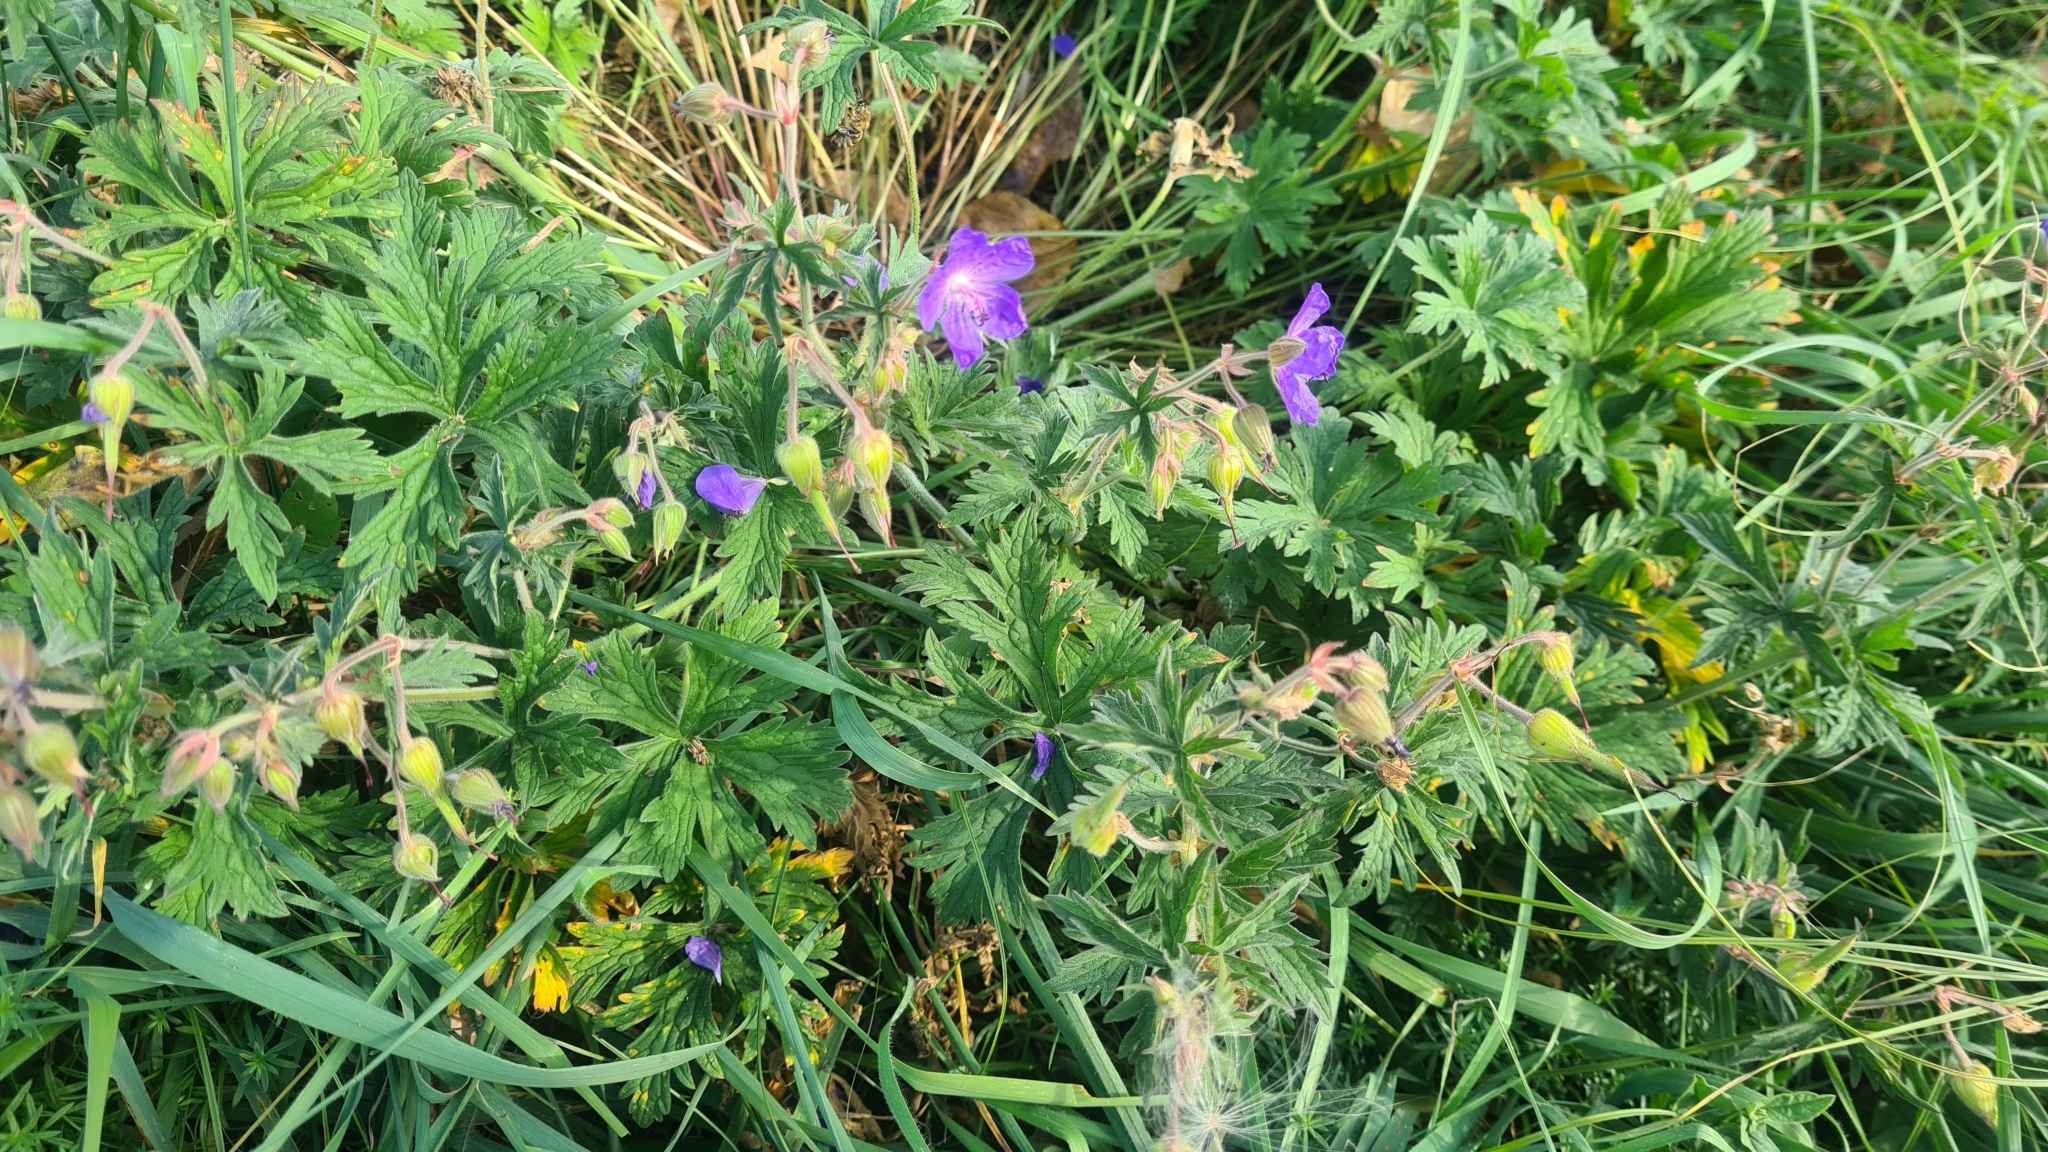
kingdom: Plantae
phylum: Tracheophyta
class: Magnoliopsida
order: Geraniales
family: Geraniaceae
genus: Geranium
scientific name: Geranium pratense
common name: Meadow crane's-bill
